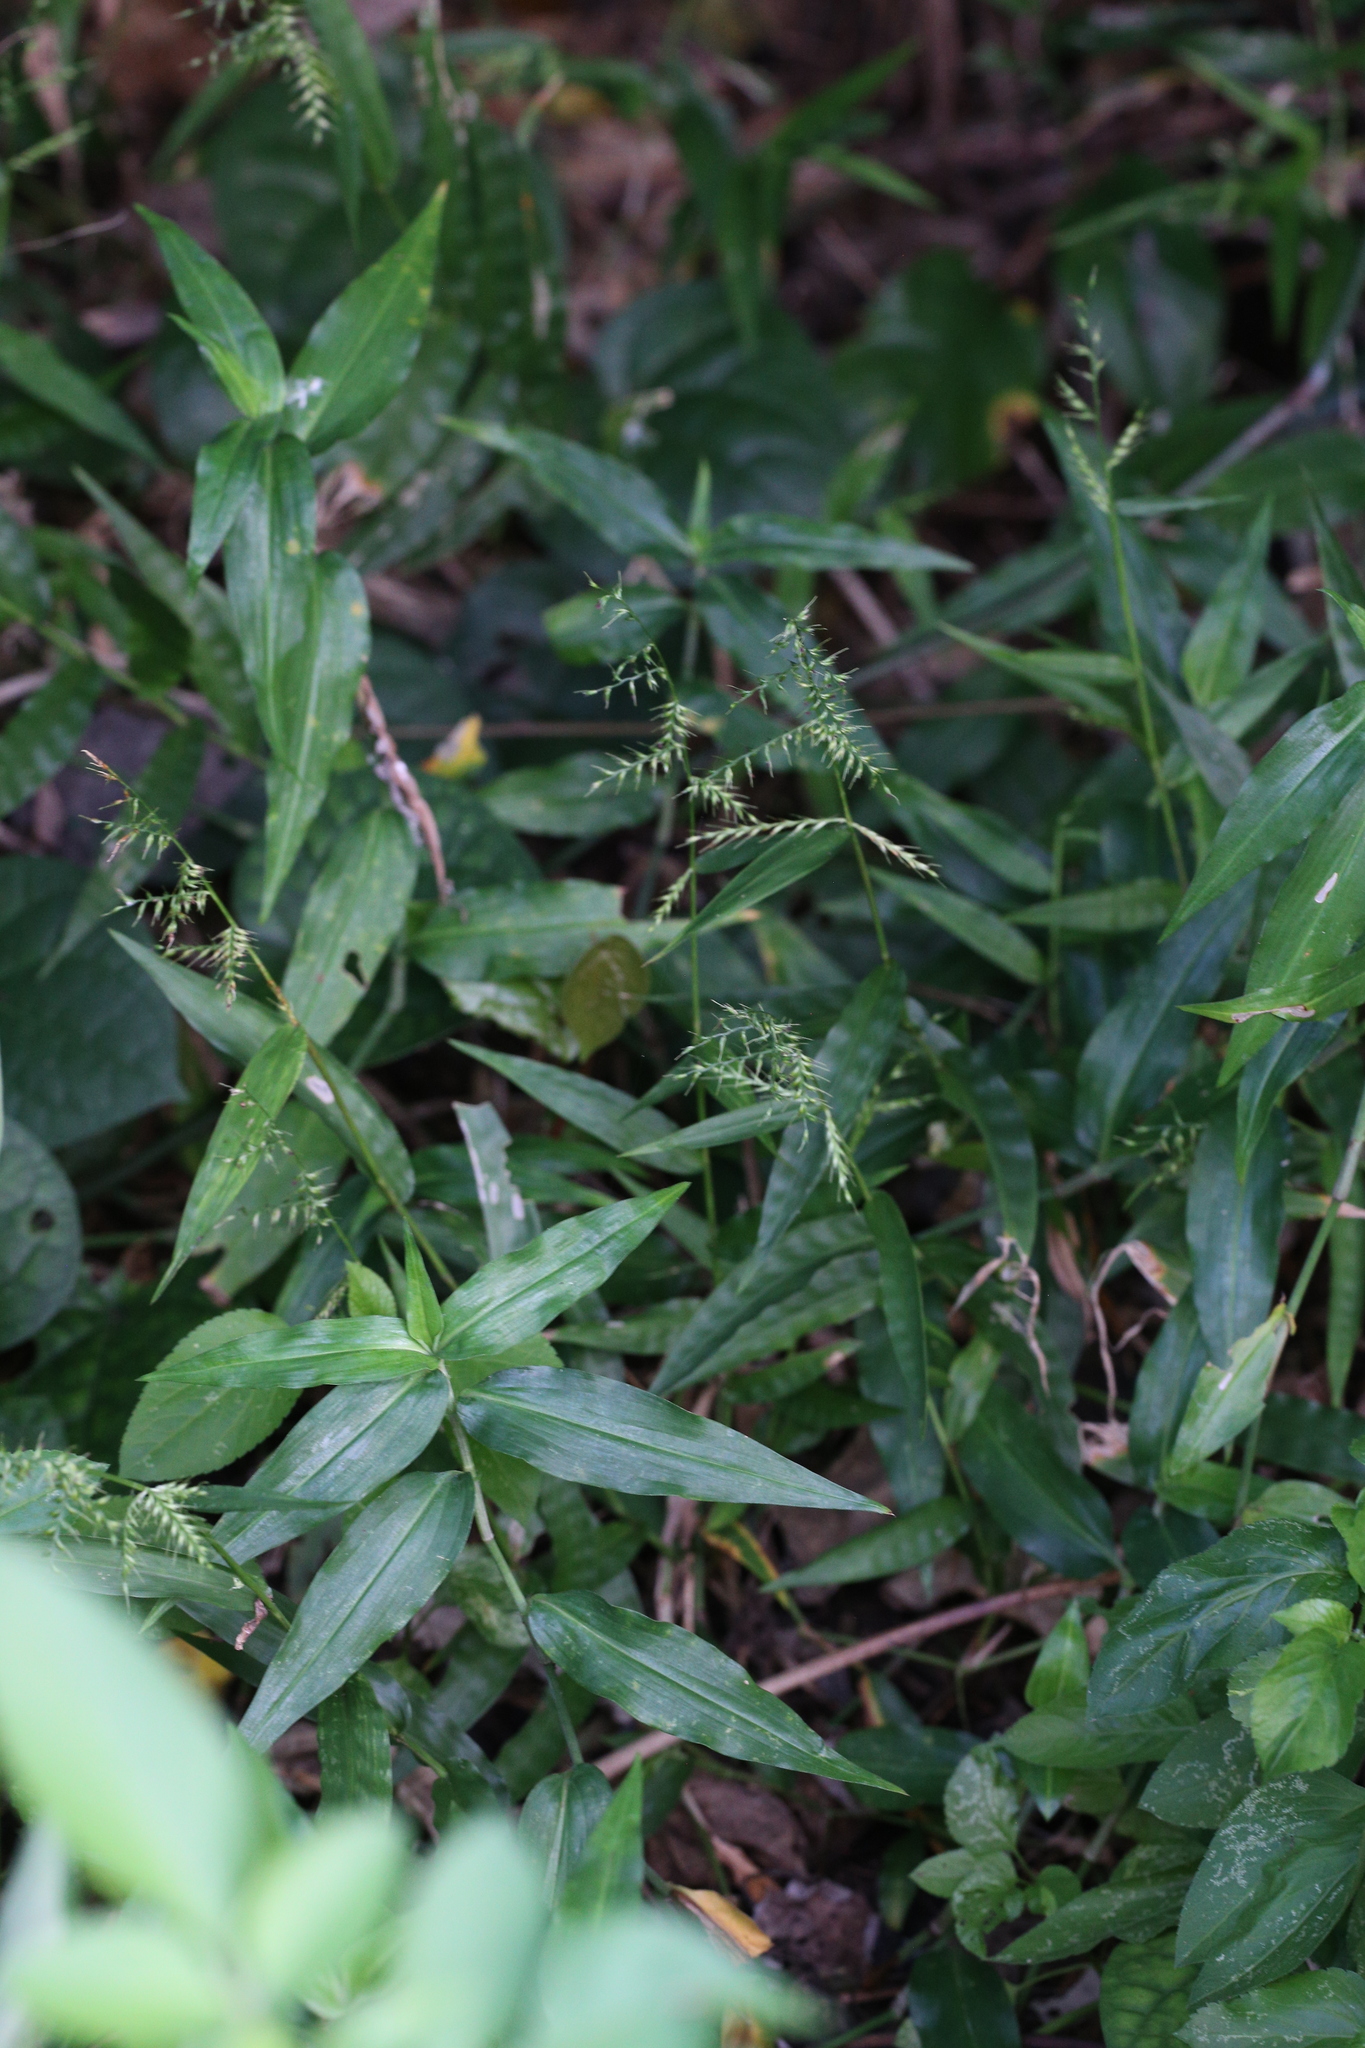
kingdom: Plantae
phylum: Tracheophyta
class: Liliopsida
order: Poales
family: Poaceae
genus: Oplismenus
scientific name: Oplismenus compositus
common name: Running mountain grass
